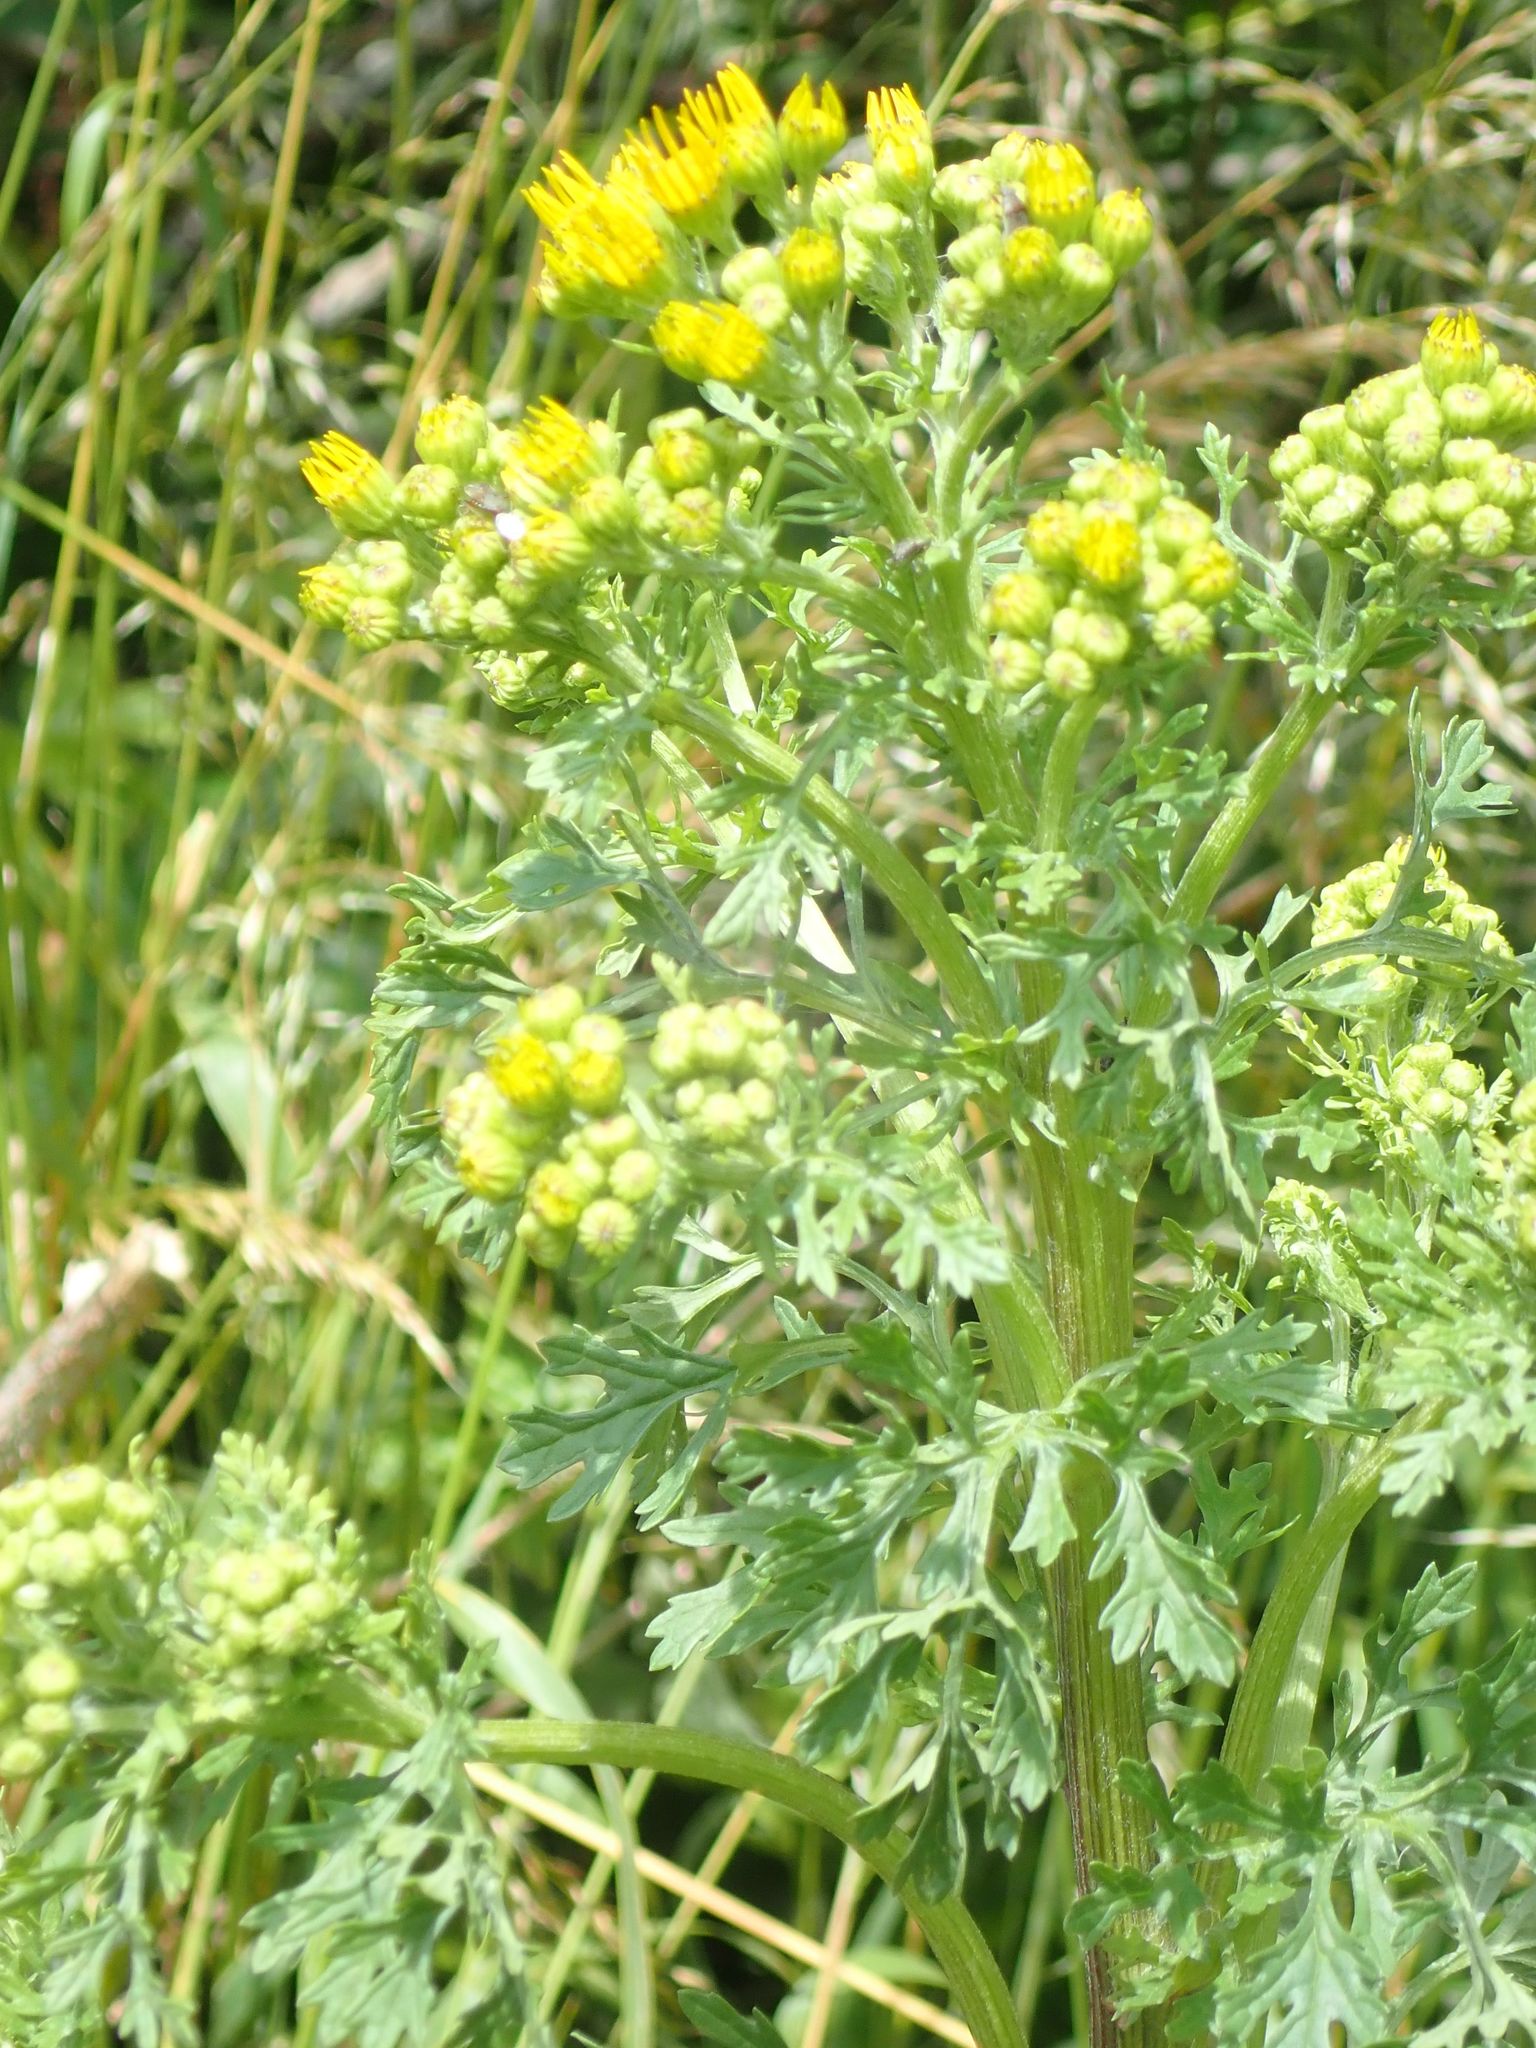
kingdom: Plantae
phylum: Tracheophyta
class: Magnoliopsida
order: Asterales
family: Asteraceae
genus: Jacobaea
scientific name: Jacobaea vulgaris
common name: Stinking willie
